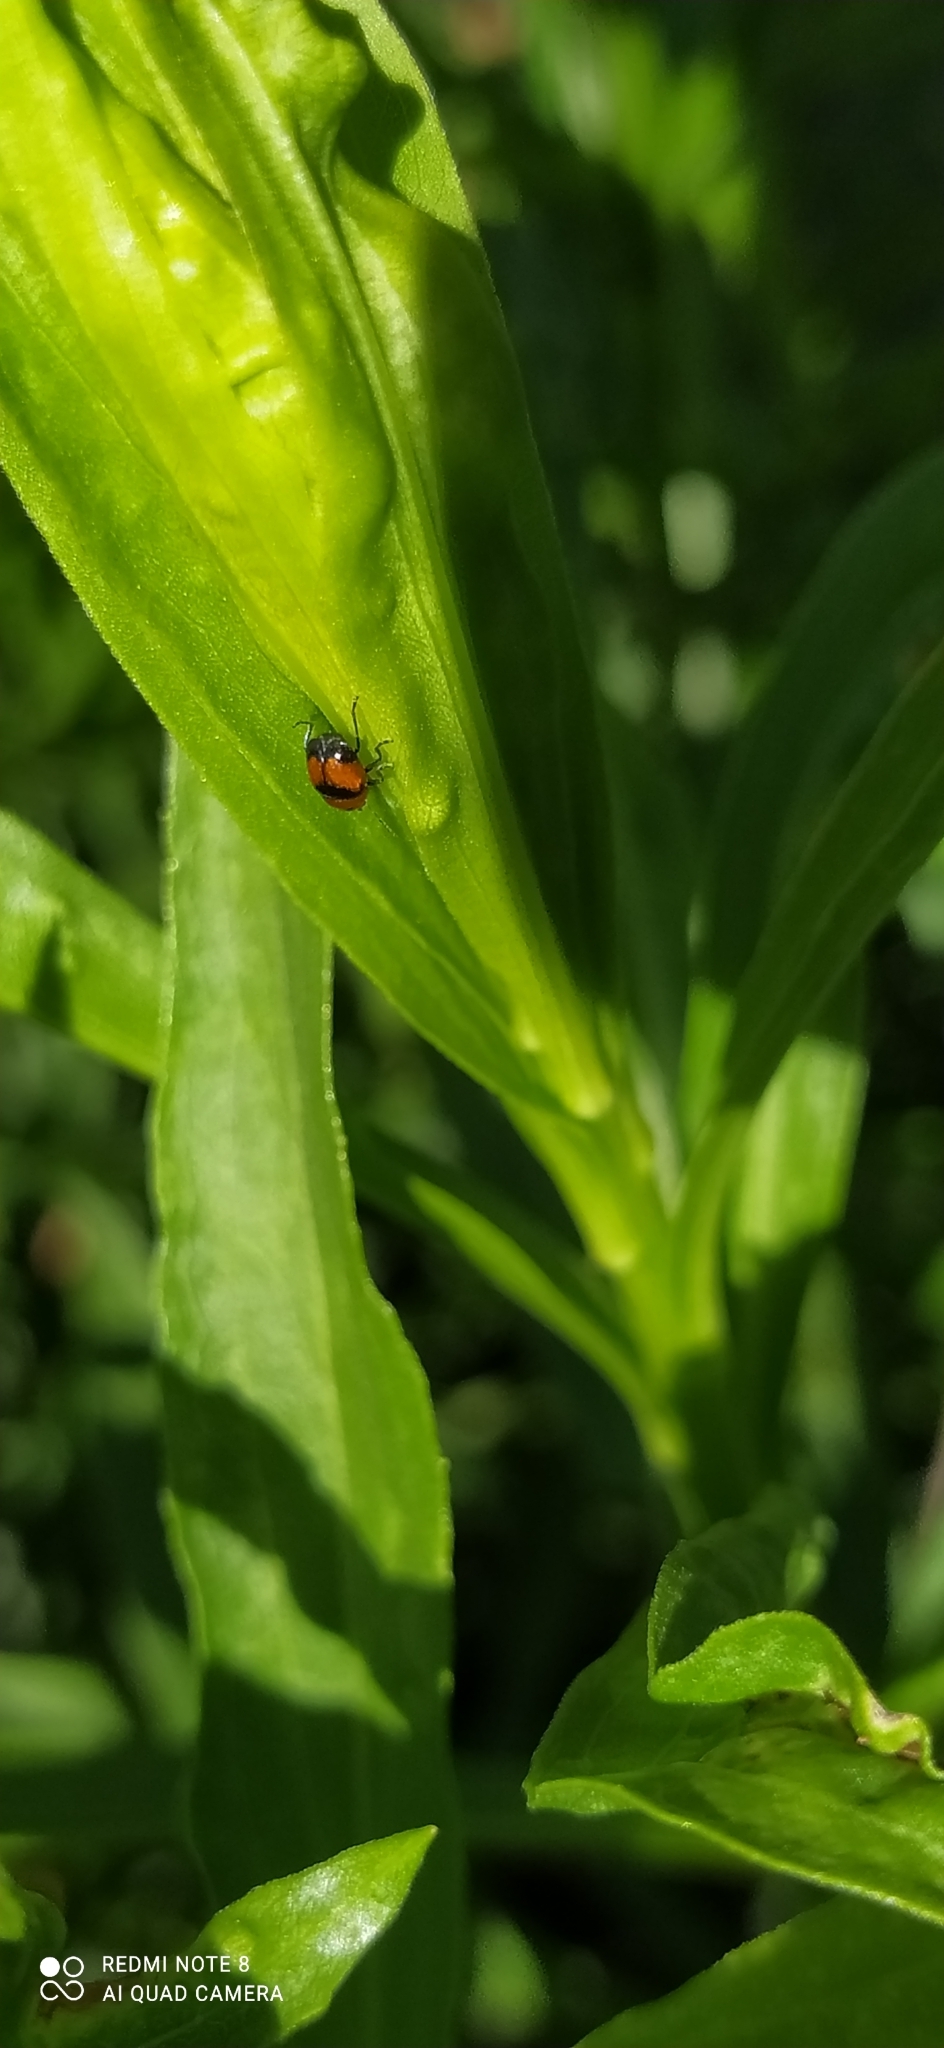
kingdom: Animalia
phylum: Arthropoda
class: Insecta
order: Coleoptera
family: Chrysomelidae
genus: Lexiphanes
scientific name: Lexiphanes
